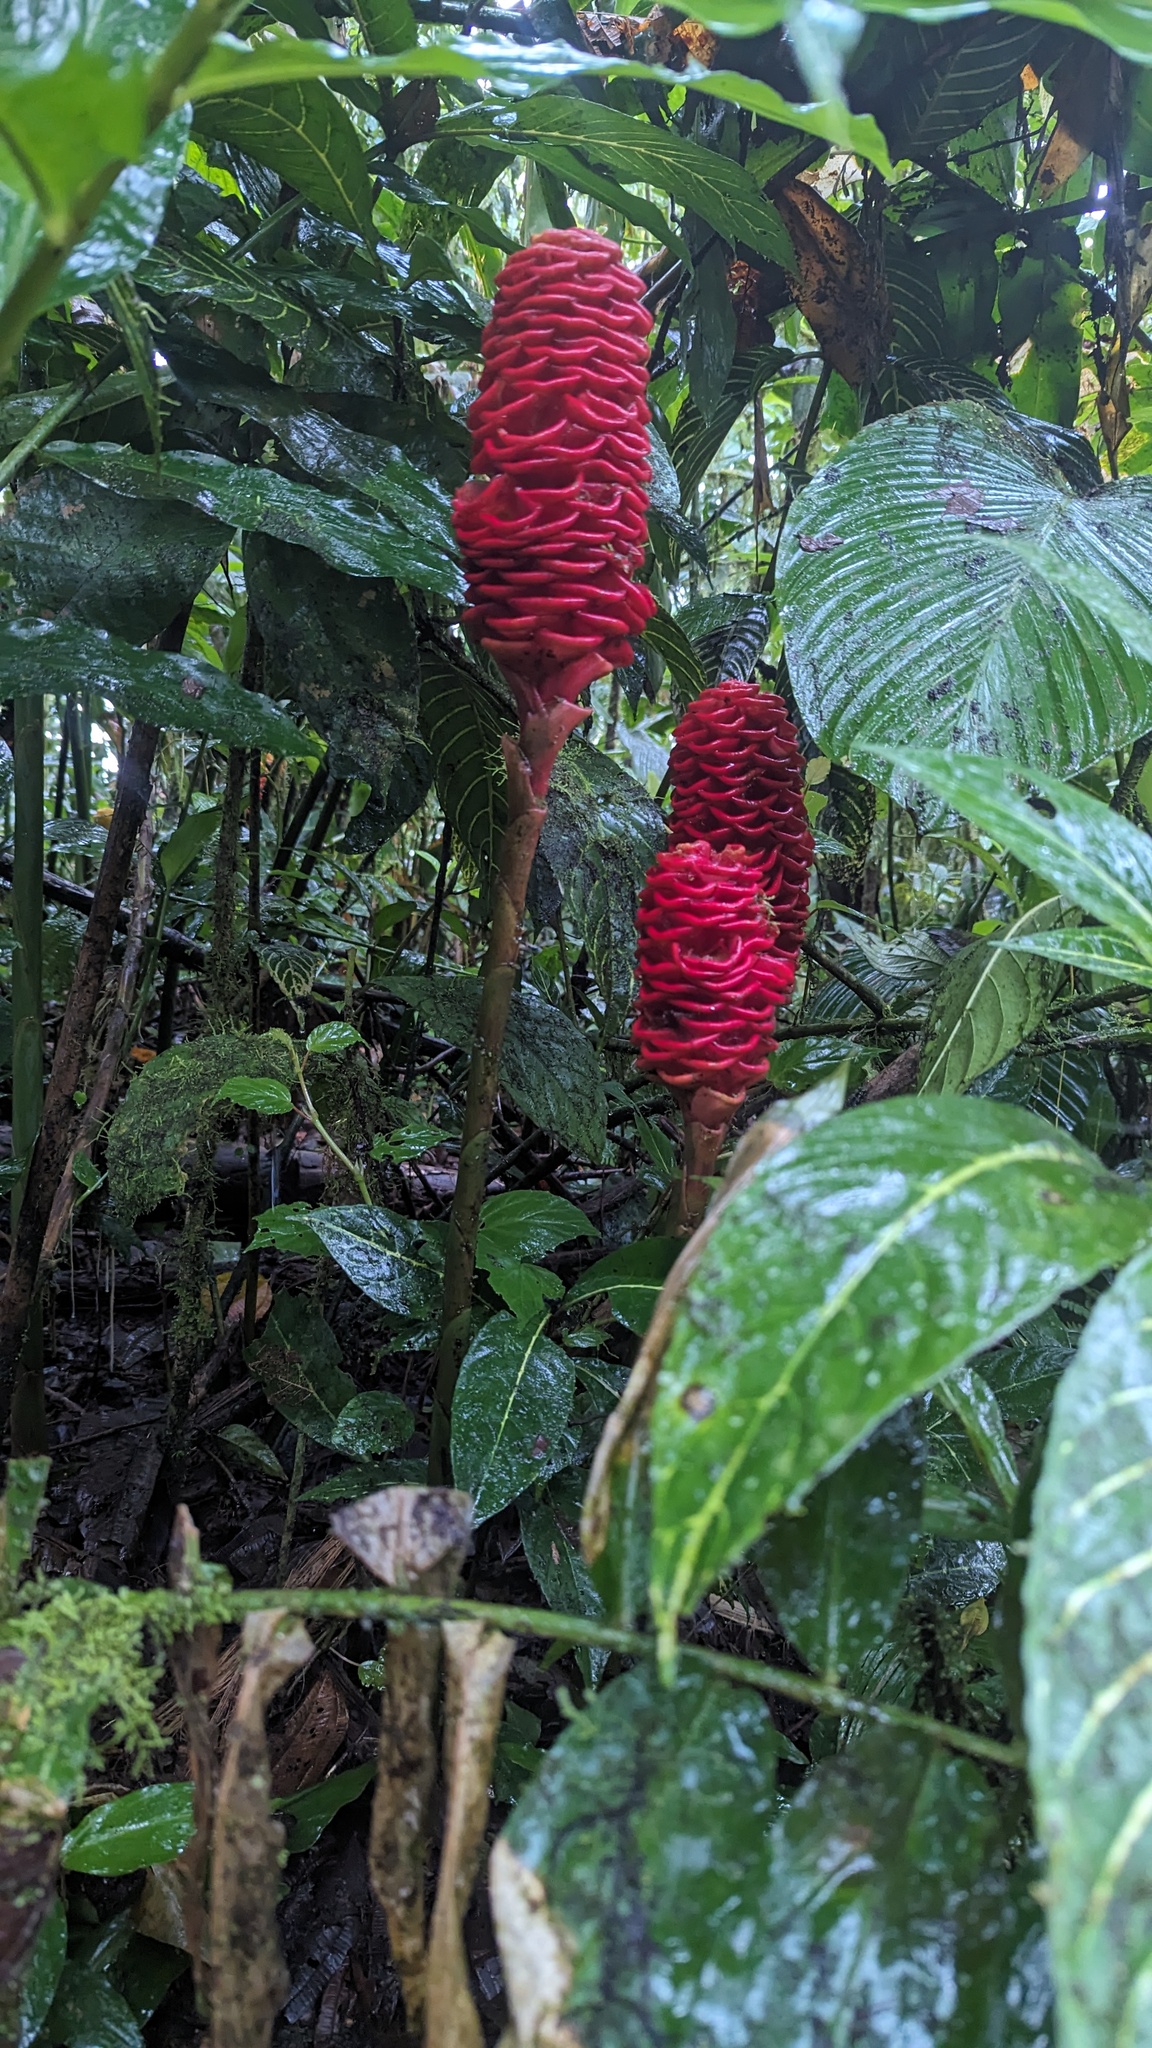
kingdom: Plantae
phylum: Tracheophyta
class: Liliopsida
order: Zingiberales
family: Zingiberaceae
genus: Zingiber
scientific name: Zingiber spectabile
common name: Beehive ginger
